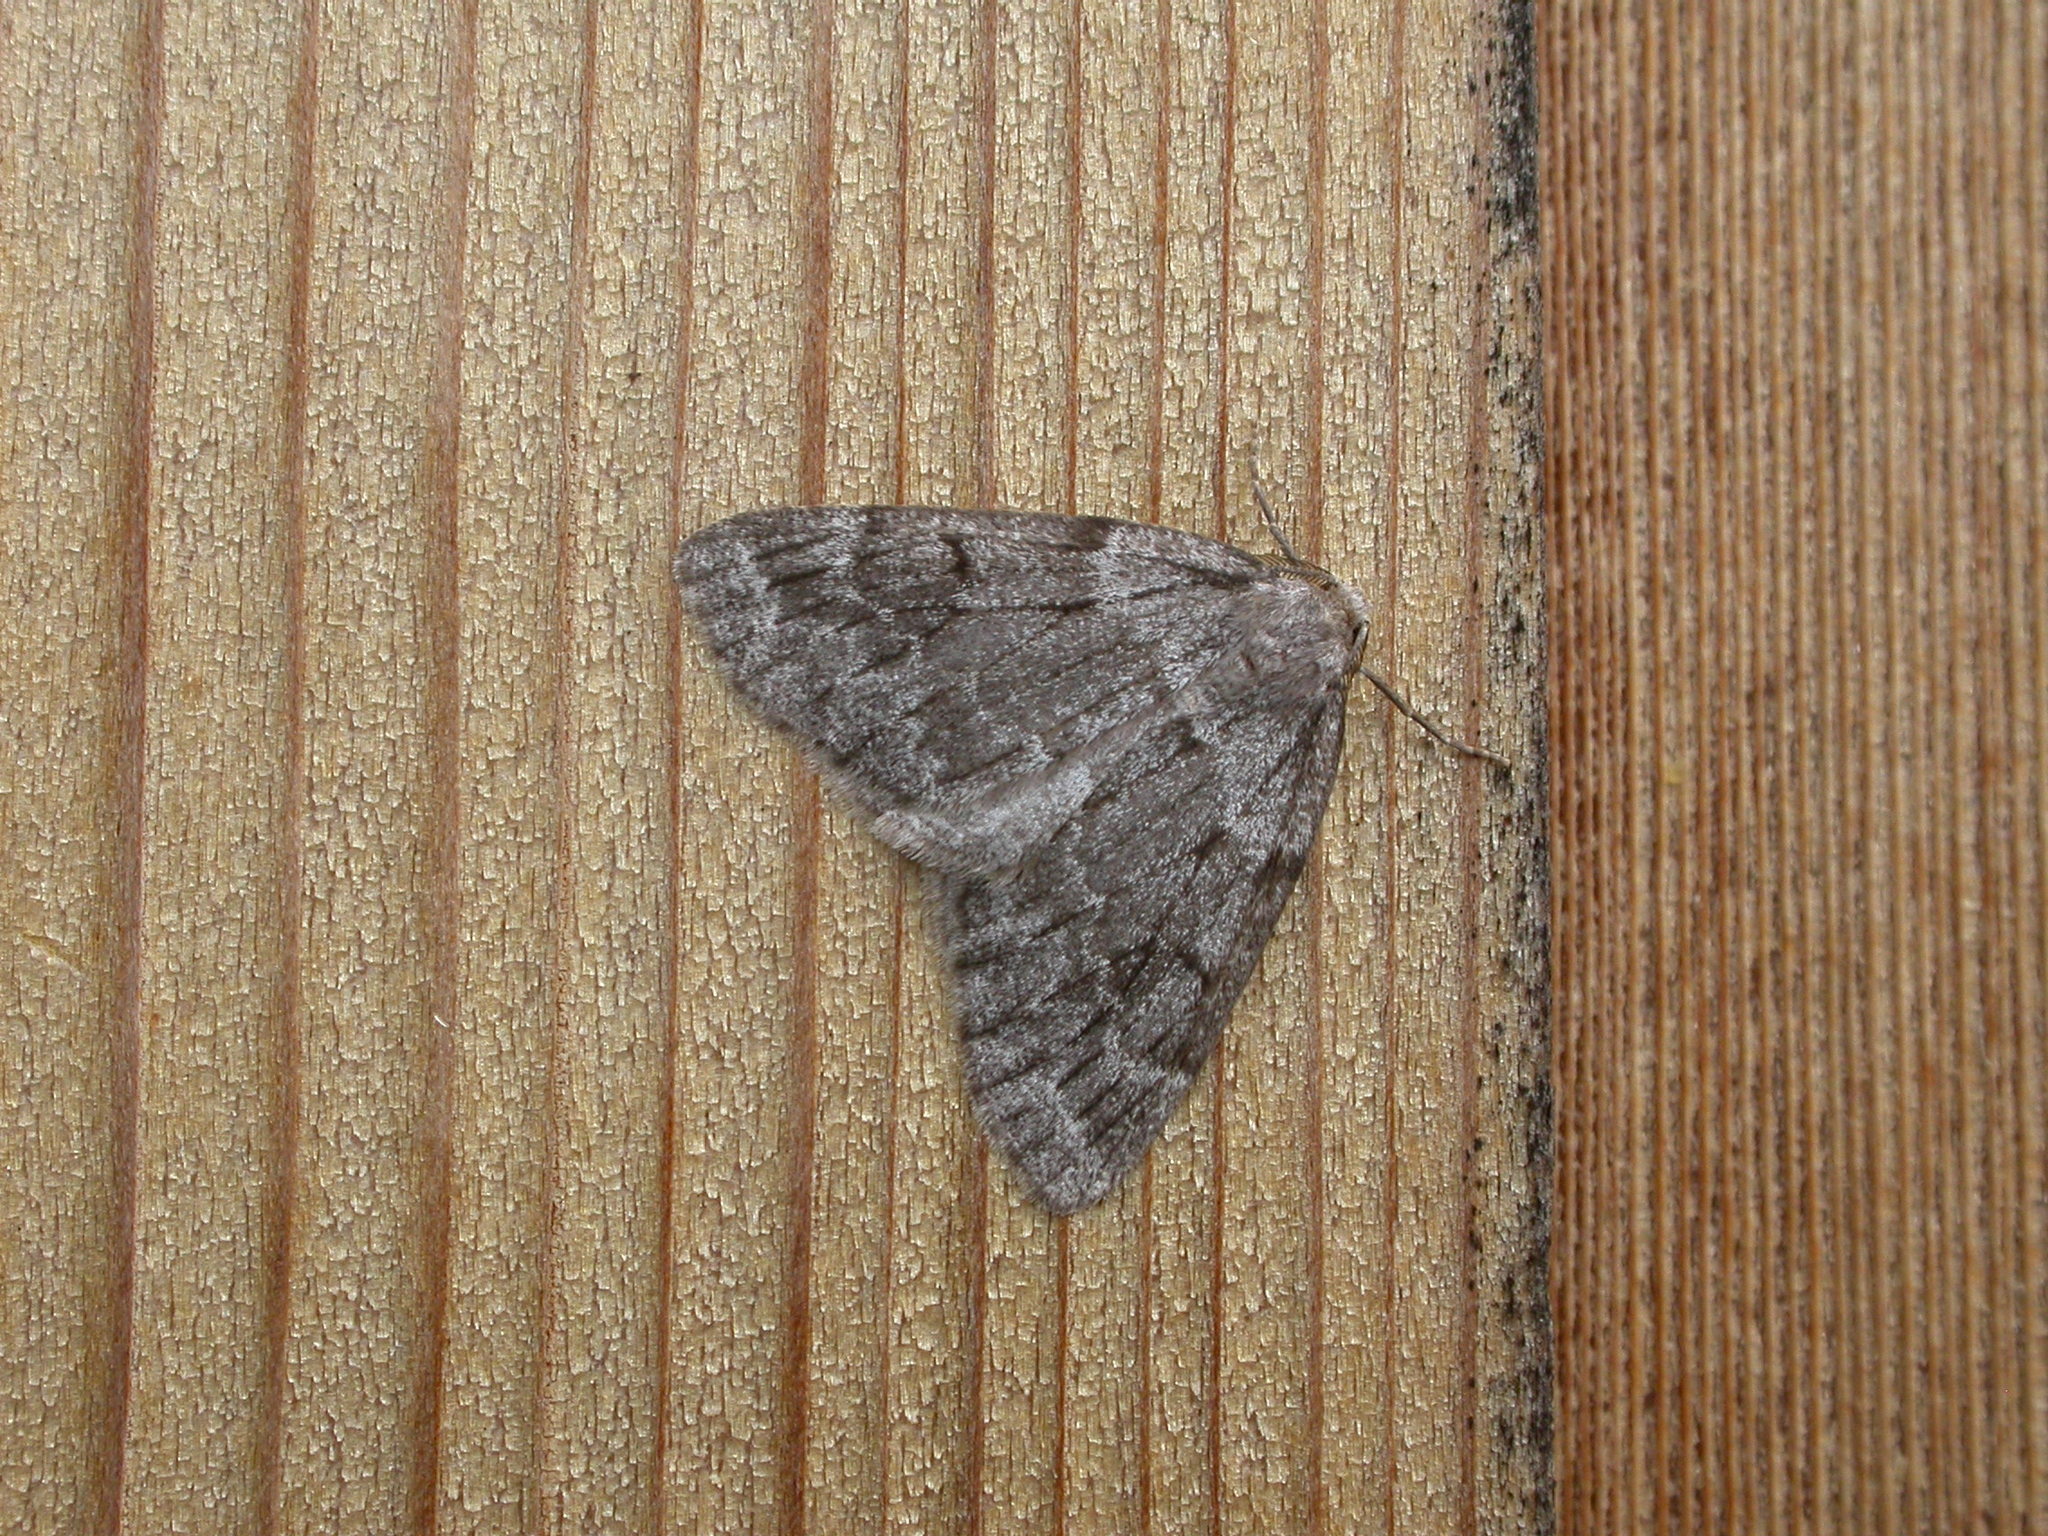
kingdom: Animalia
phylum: Arthropoda
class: Insecta
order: Lepidoptera
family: Geometridae
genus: Nepytia
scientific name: Nepytia umbrosaria
